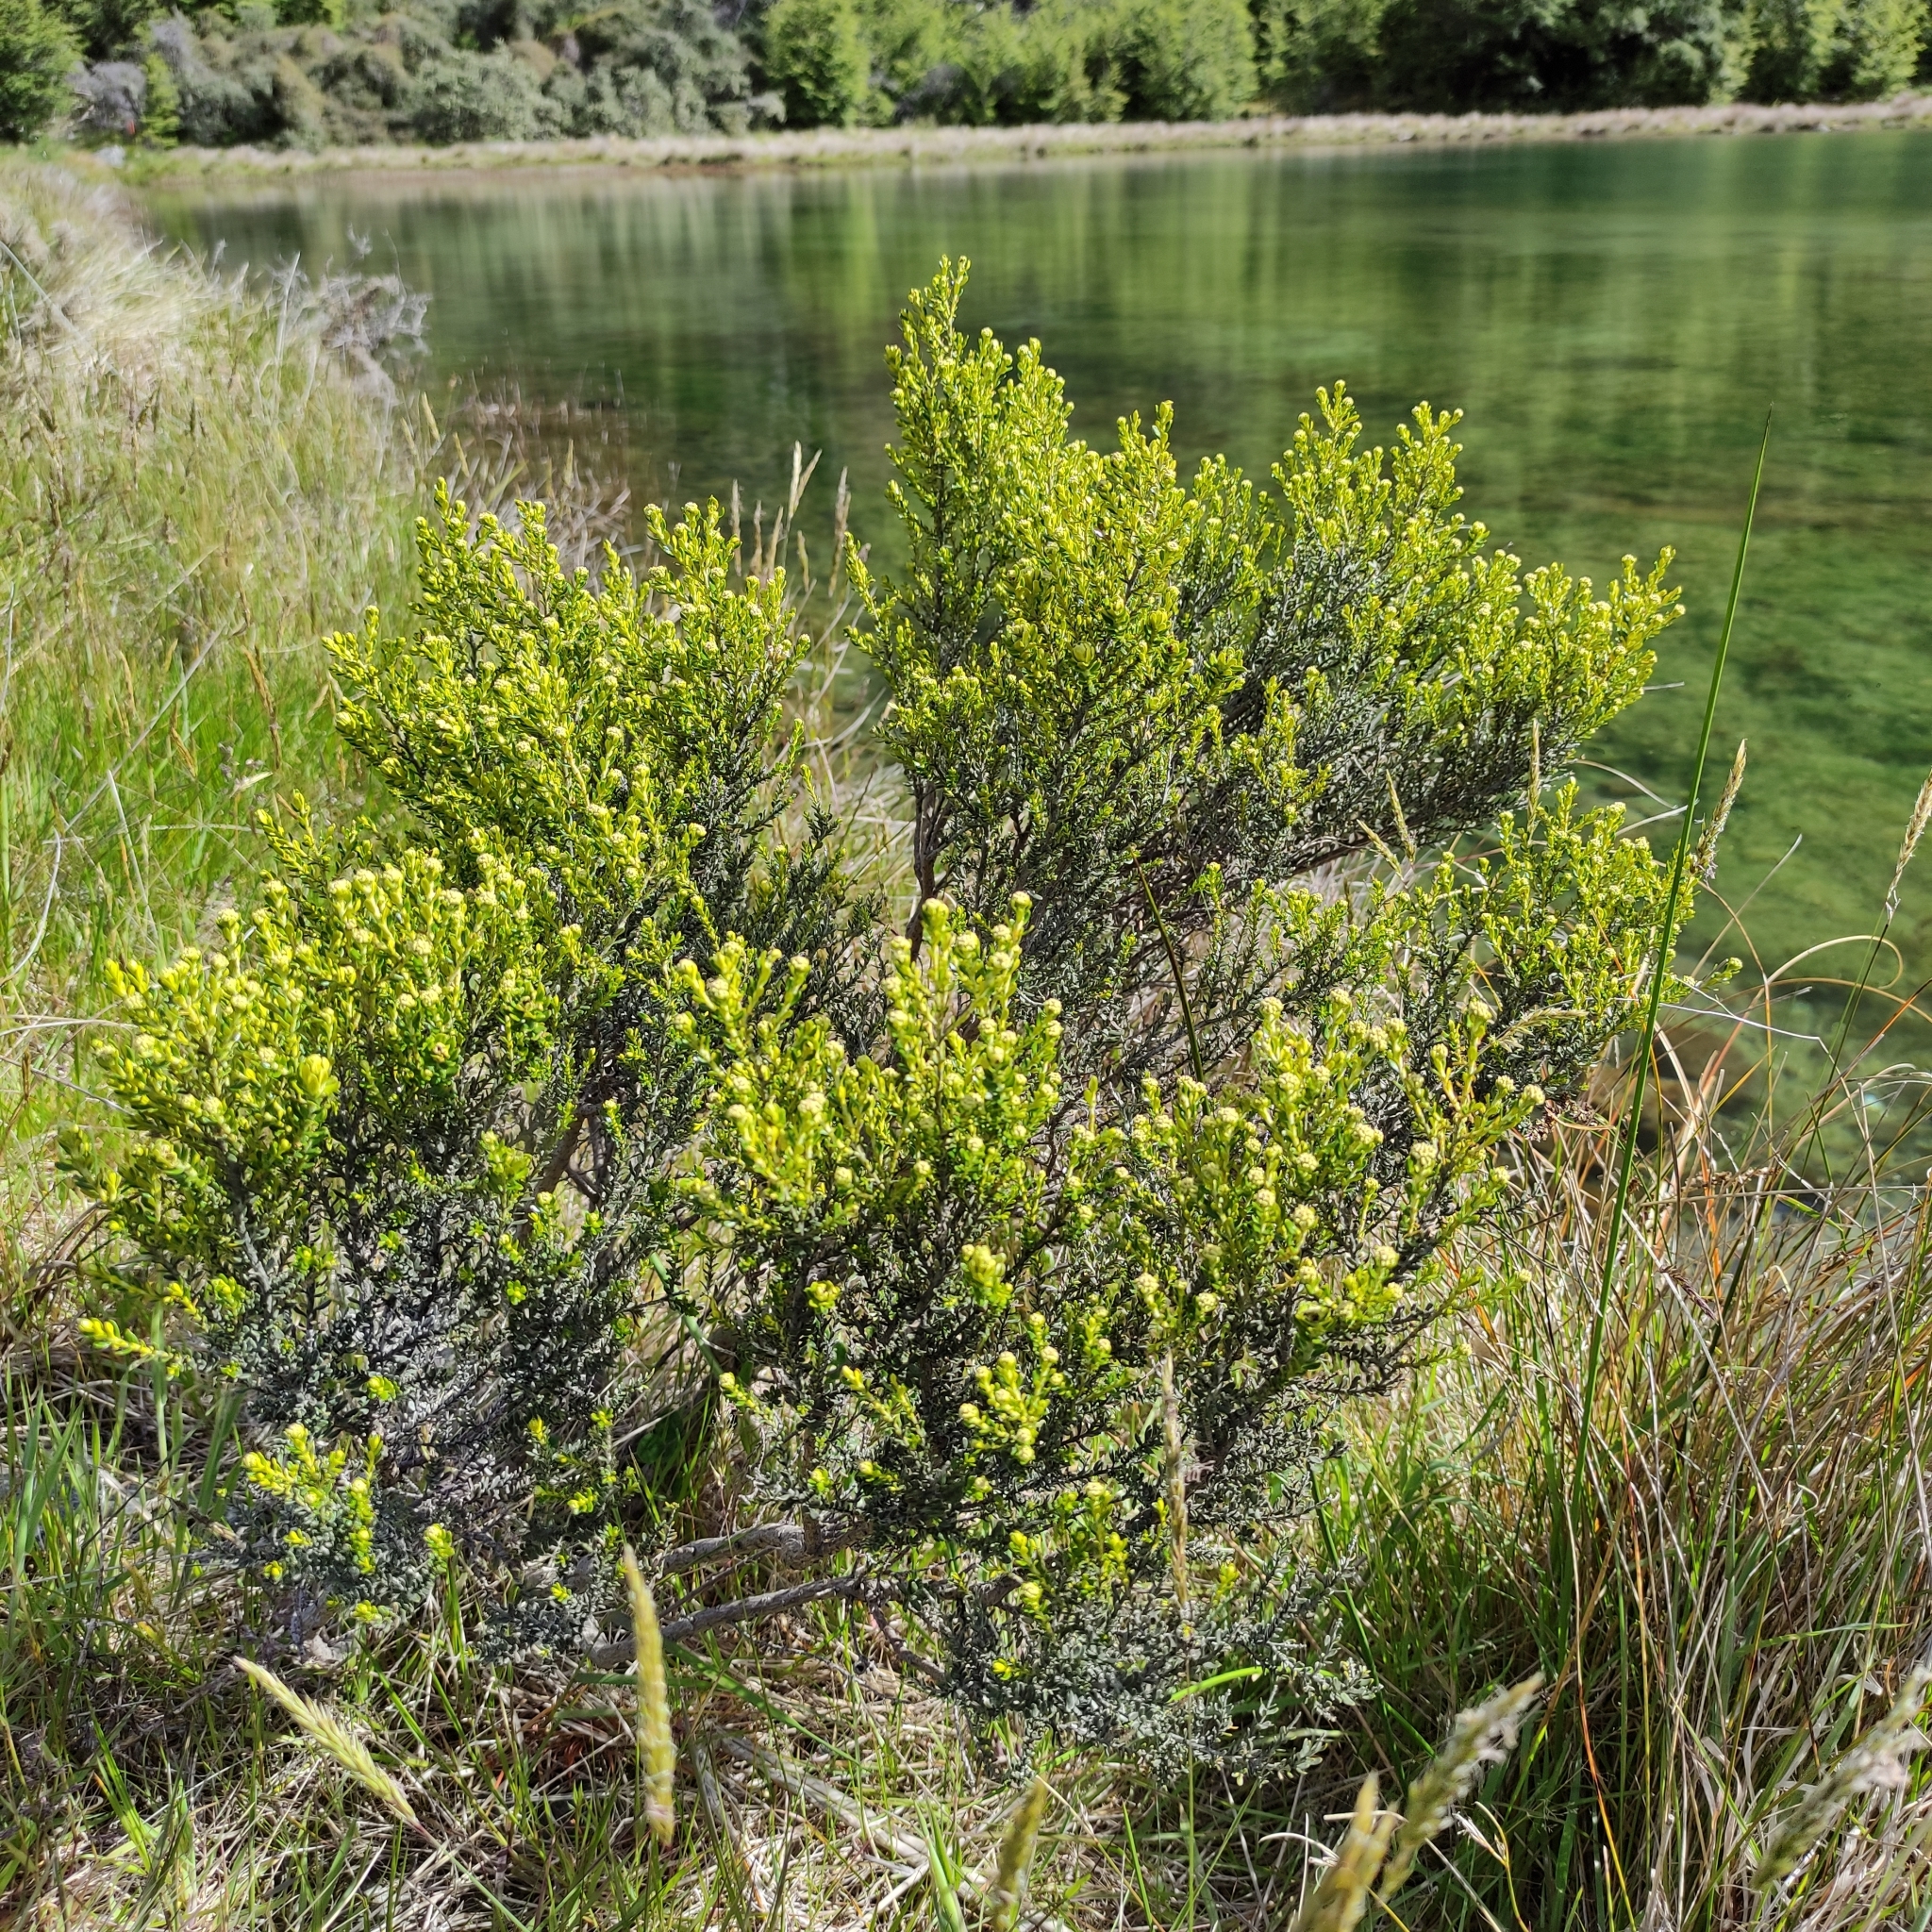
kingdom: Plantae
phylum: Tracheophyta
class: Magnoliopsida
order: Asterales
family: Asteraceae
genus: Ozothamnus
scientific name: Ozothamnus leptophyllus
